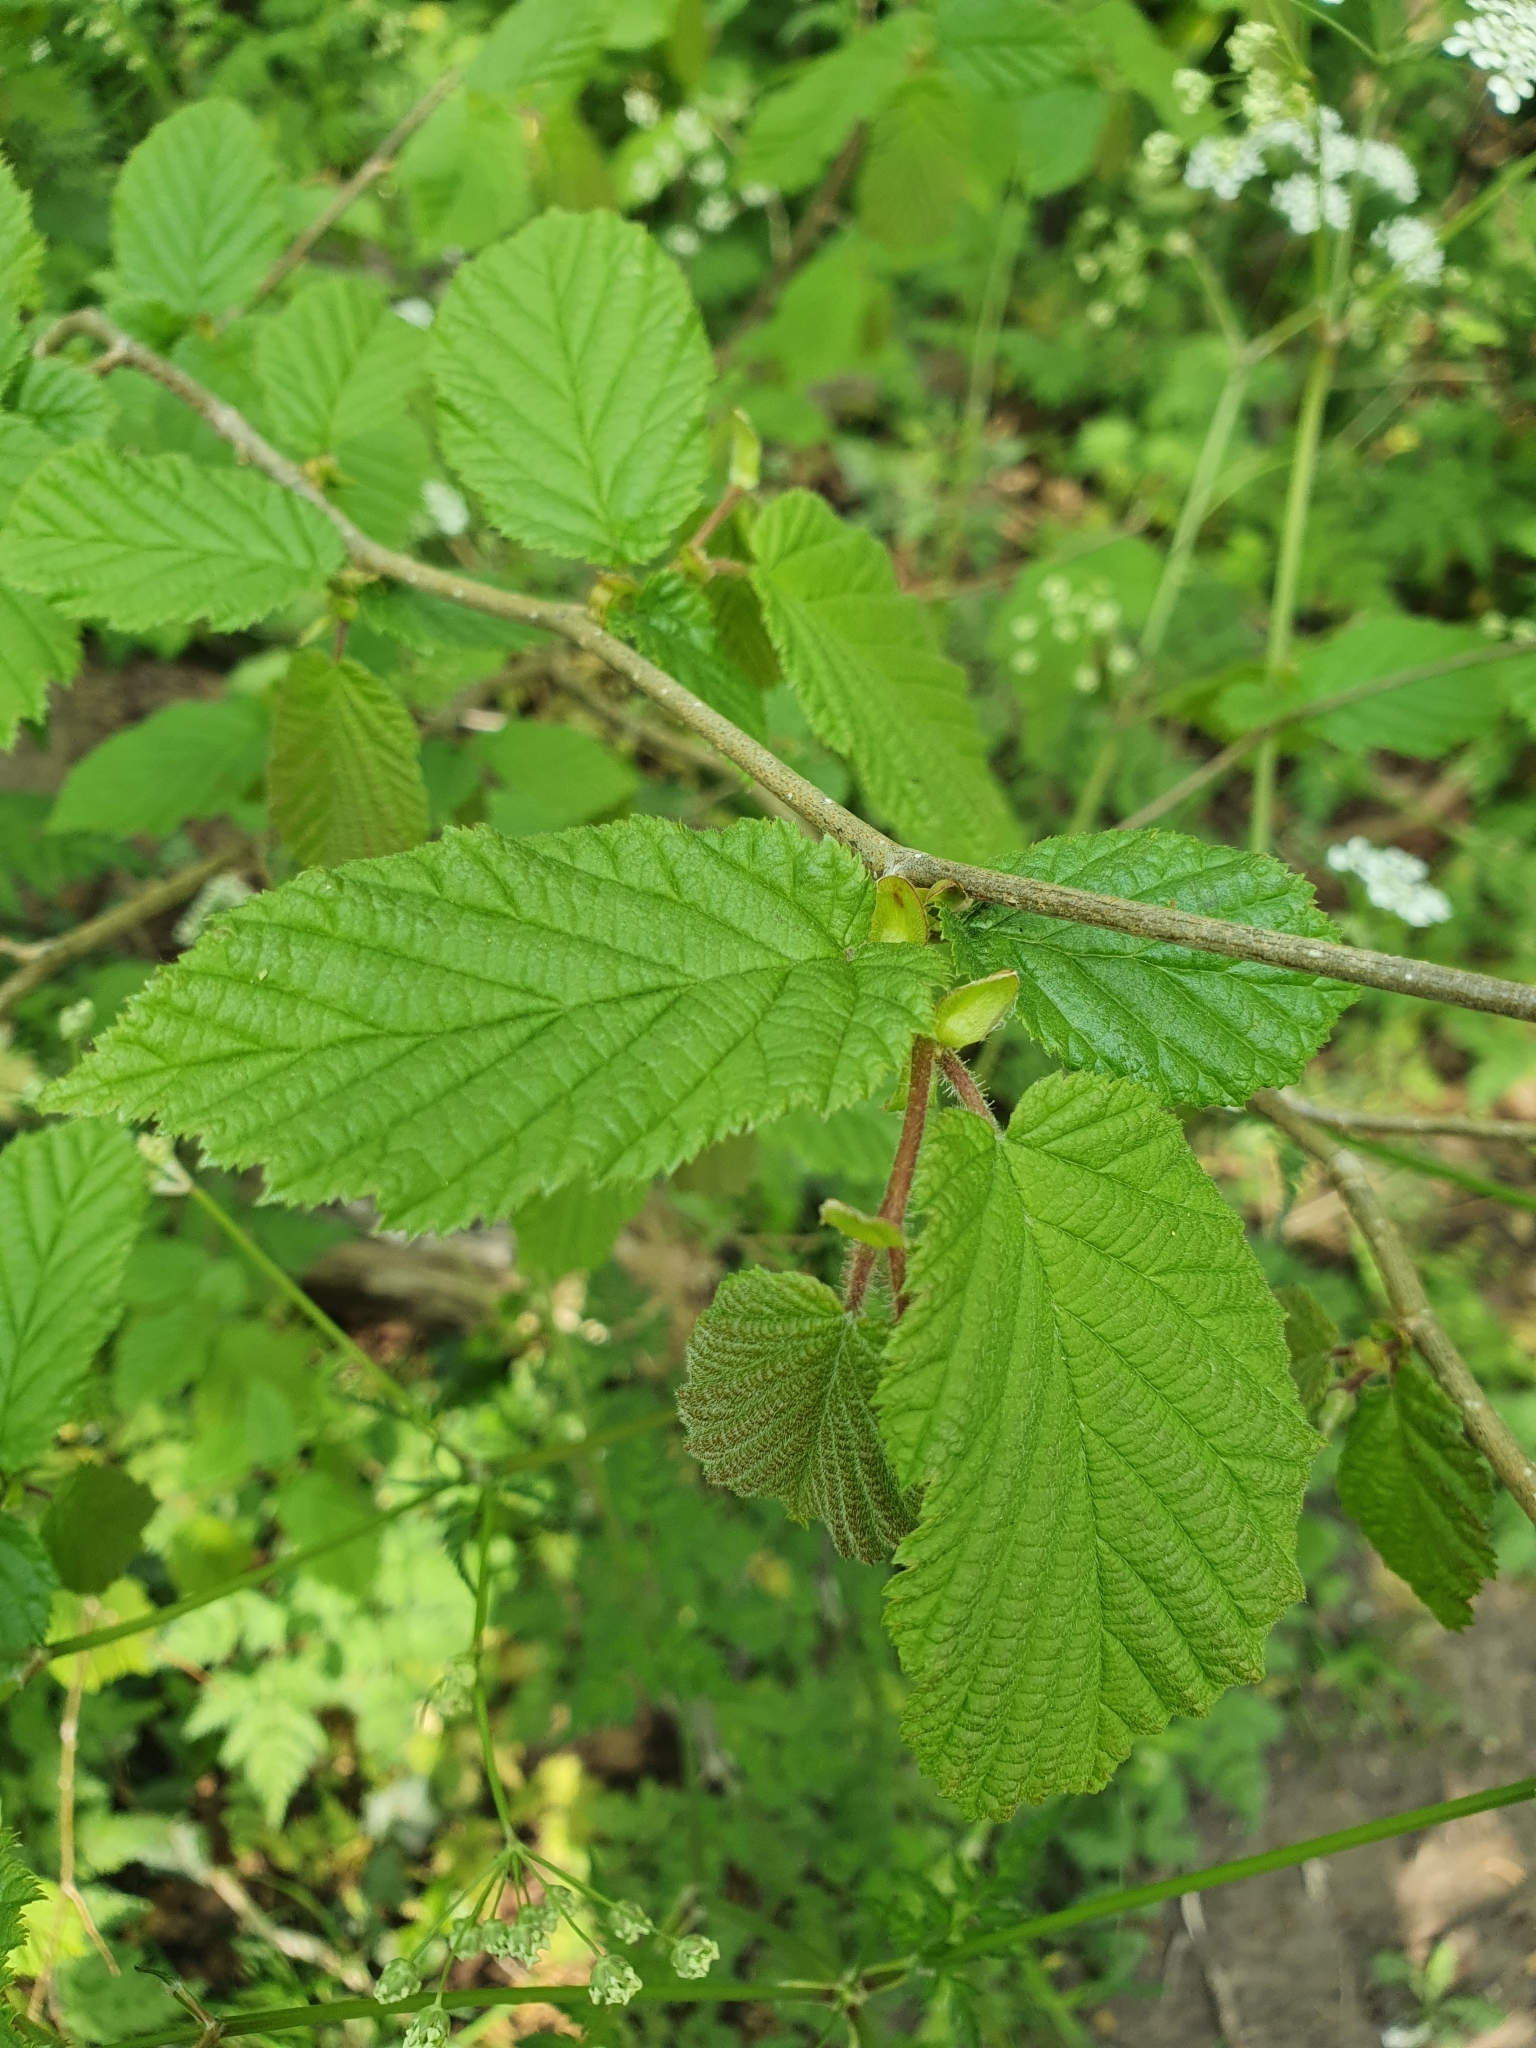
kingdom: Plantae
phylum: Tracheophyta
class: Magnoliopsida
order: Fagales
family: Betulaceae
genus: Corylus
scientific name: Corylus avellana
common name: European hazel
